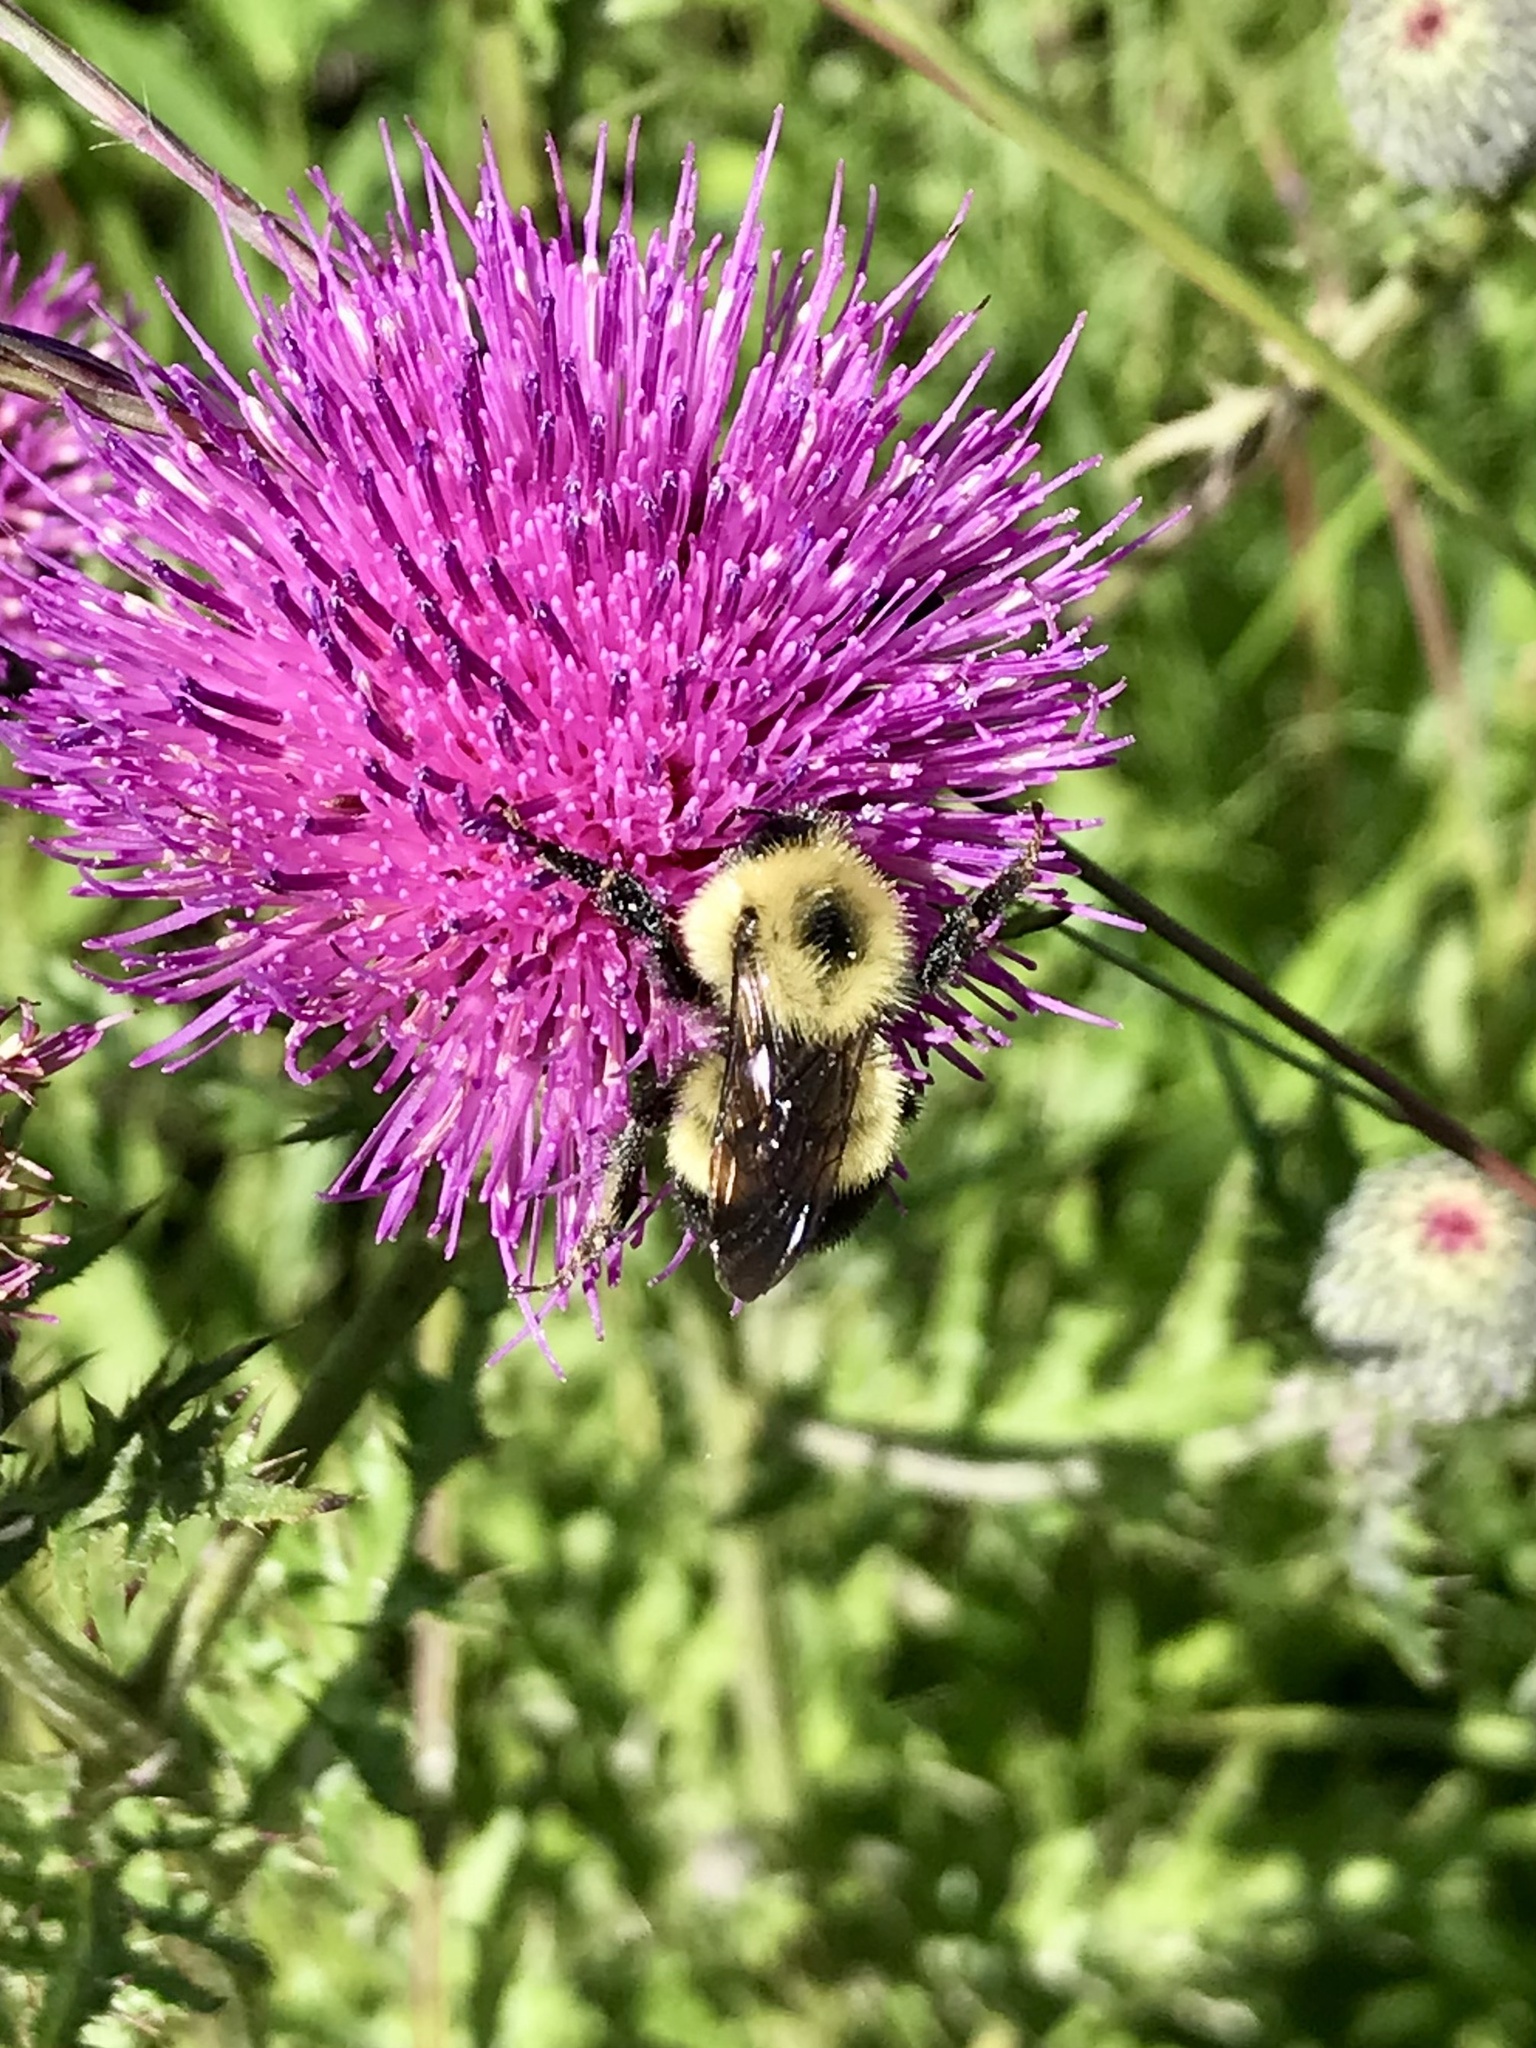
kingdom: Animalia
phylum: Arthropoda
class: Insecta
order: Hymenoptera
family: Apidae
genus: Pyrobombus
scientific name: Pyrobombus
